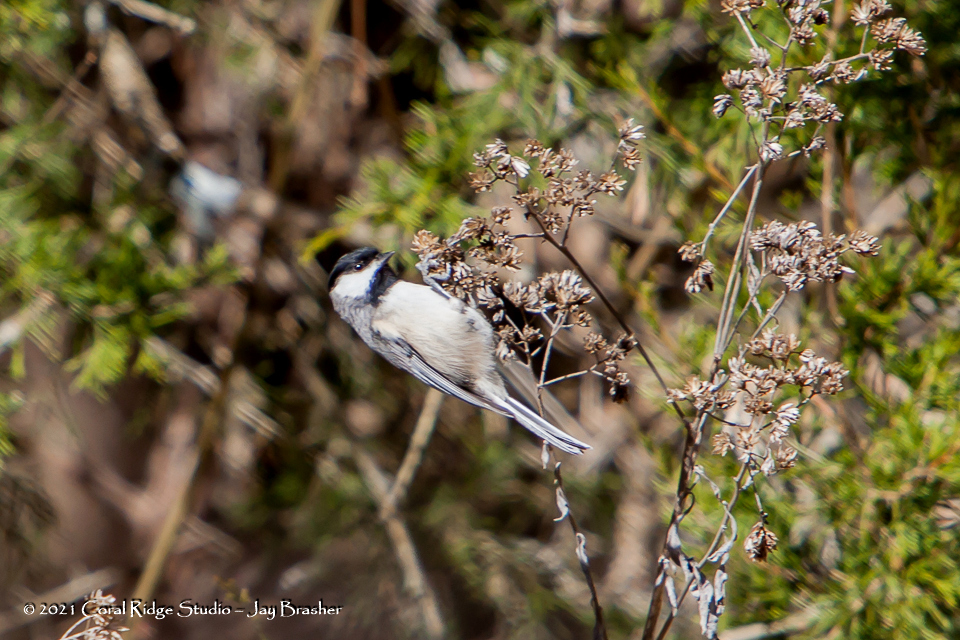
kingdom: Animalia
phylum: Chordata
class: Aves
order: Passeriformes
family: Paridae
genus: Poecile
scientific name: Poecile carolinensis
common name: Carolina chickadee
